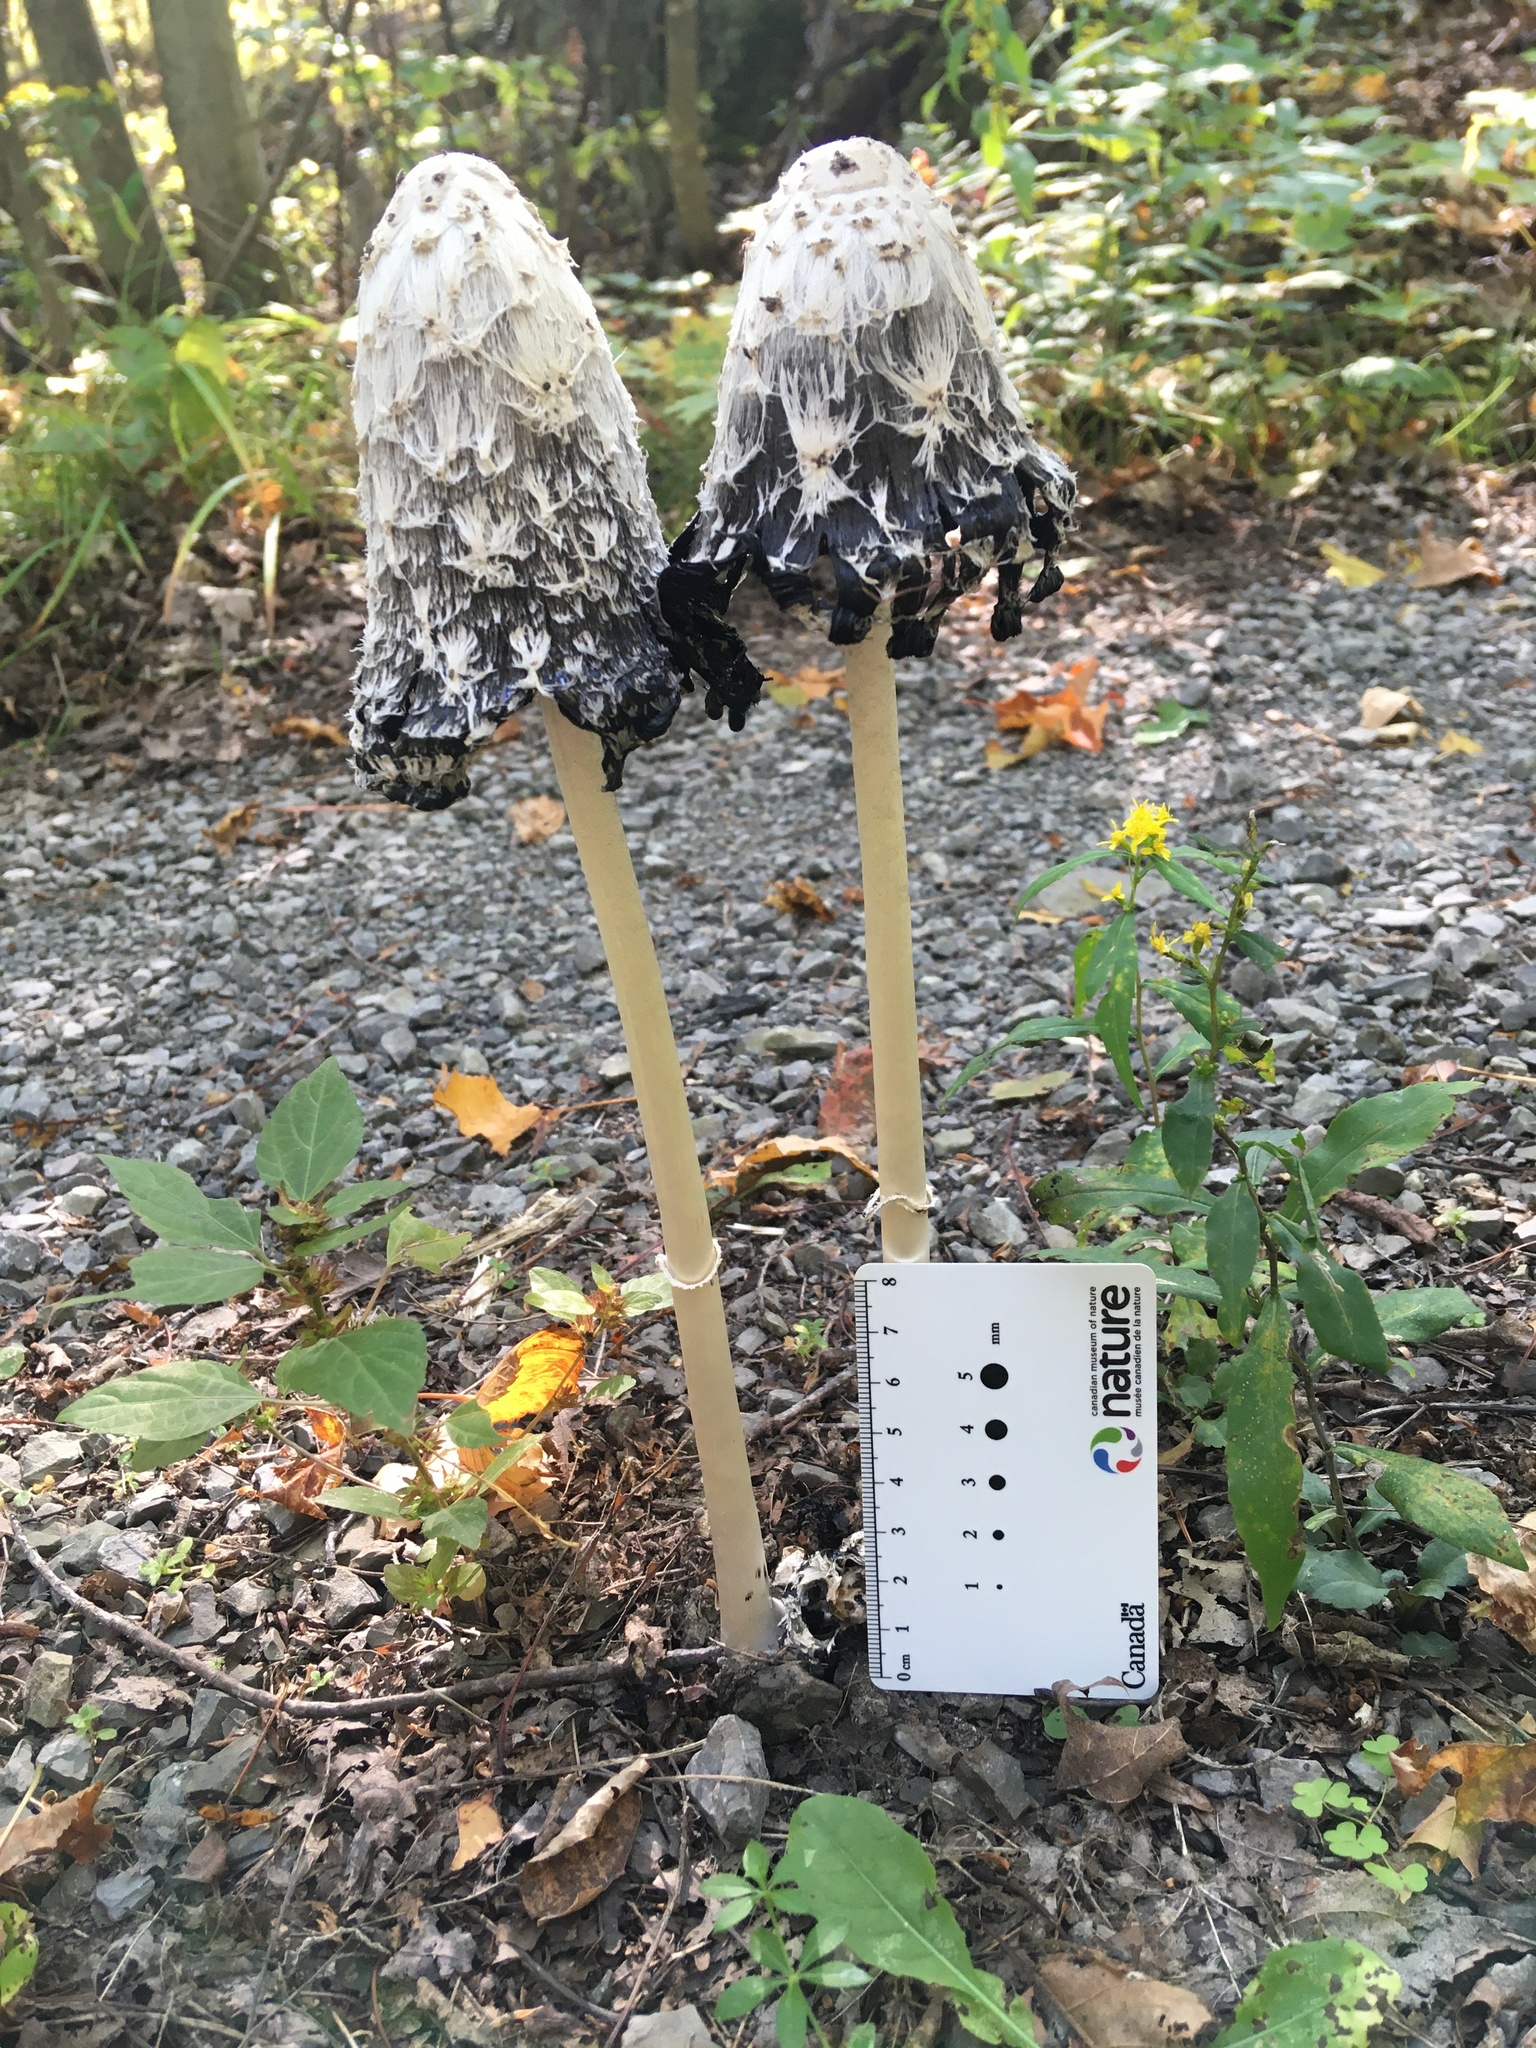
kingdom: Fungi
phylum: Basidiomycota
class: Agaricomycetes
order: Agaricales
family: Agaricaceae
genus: Coprinus
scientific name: Coprinus comatus
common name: Lawyer's wig
